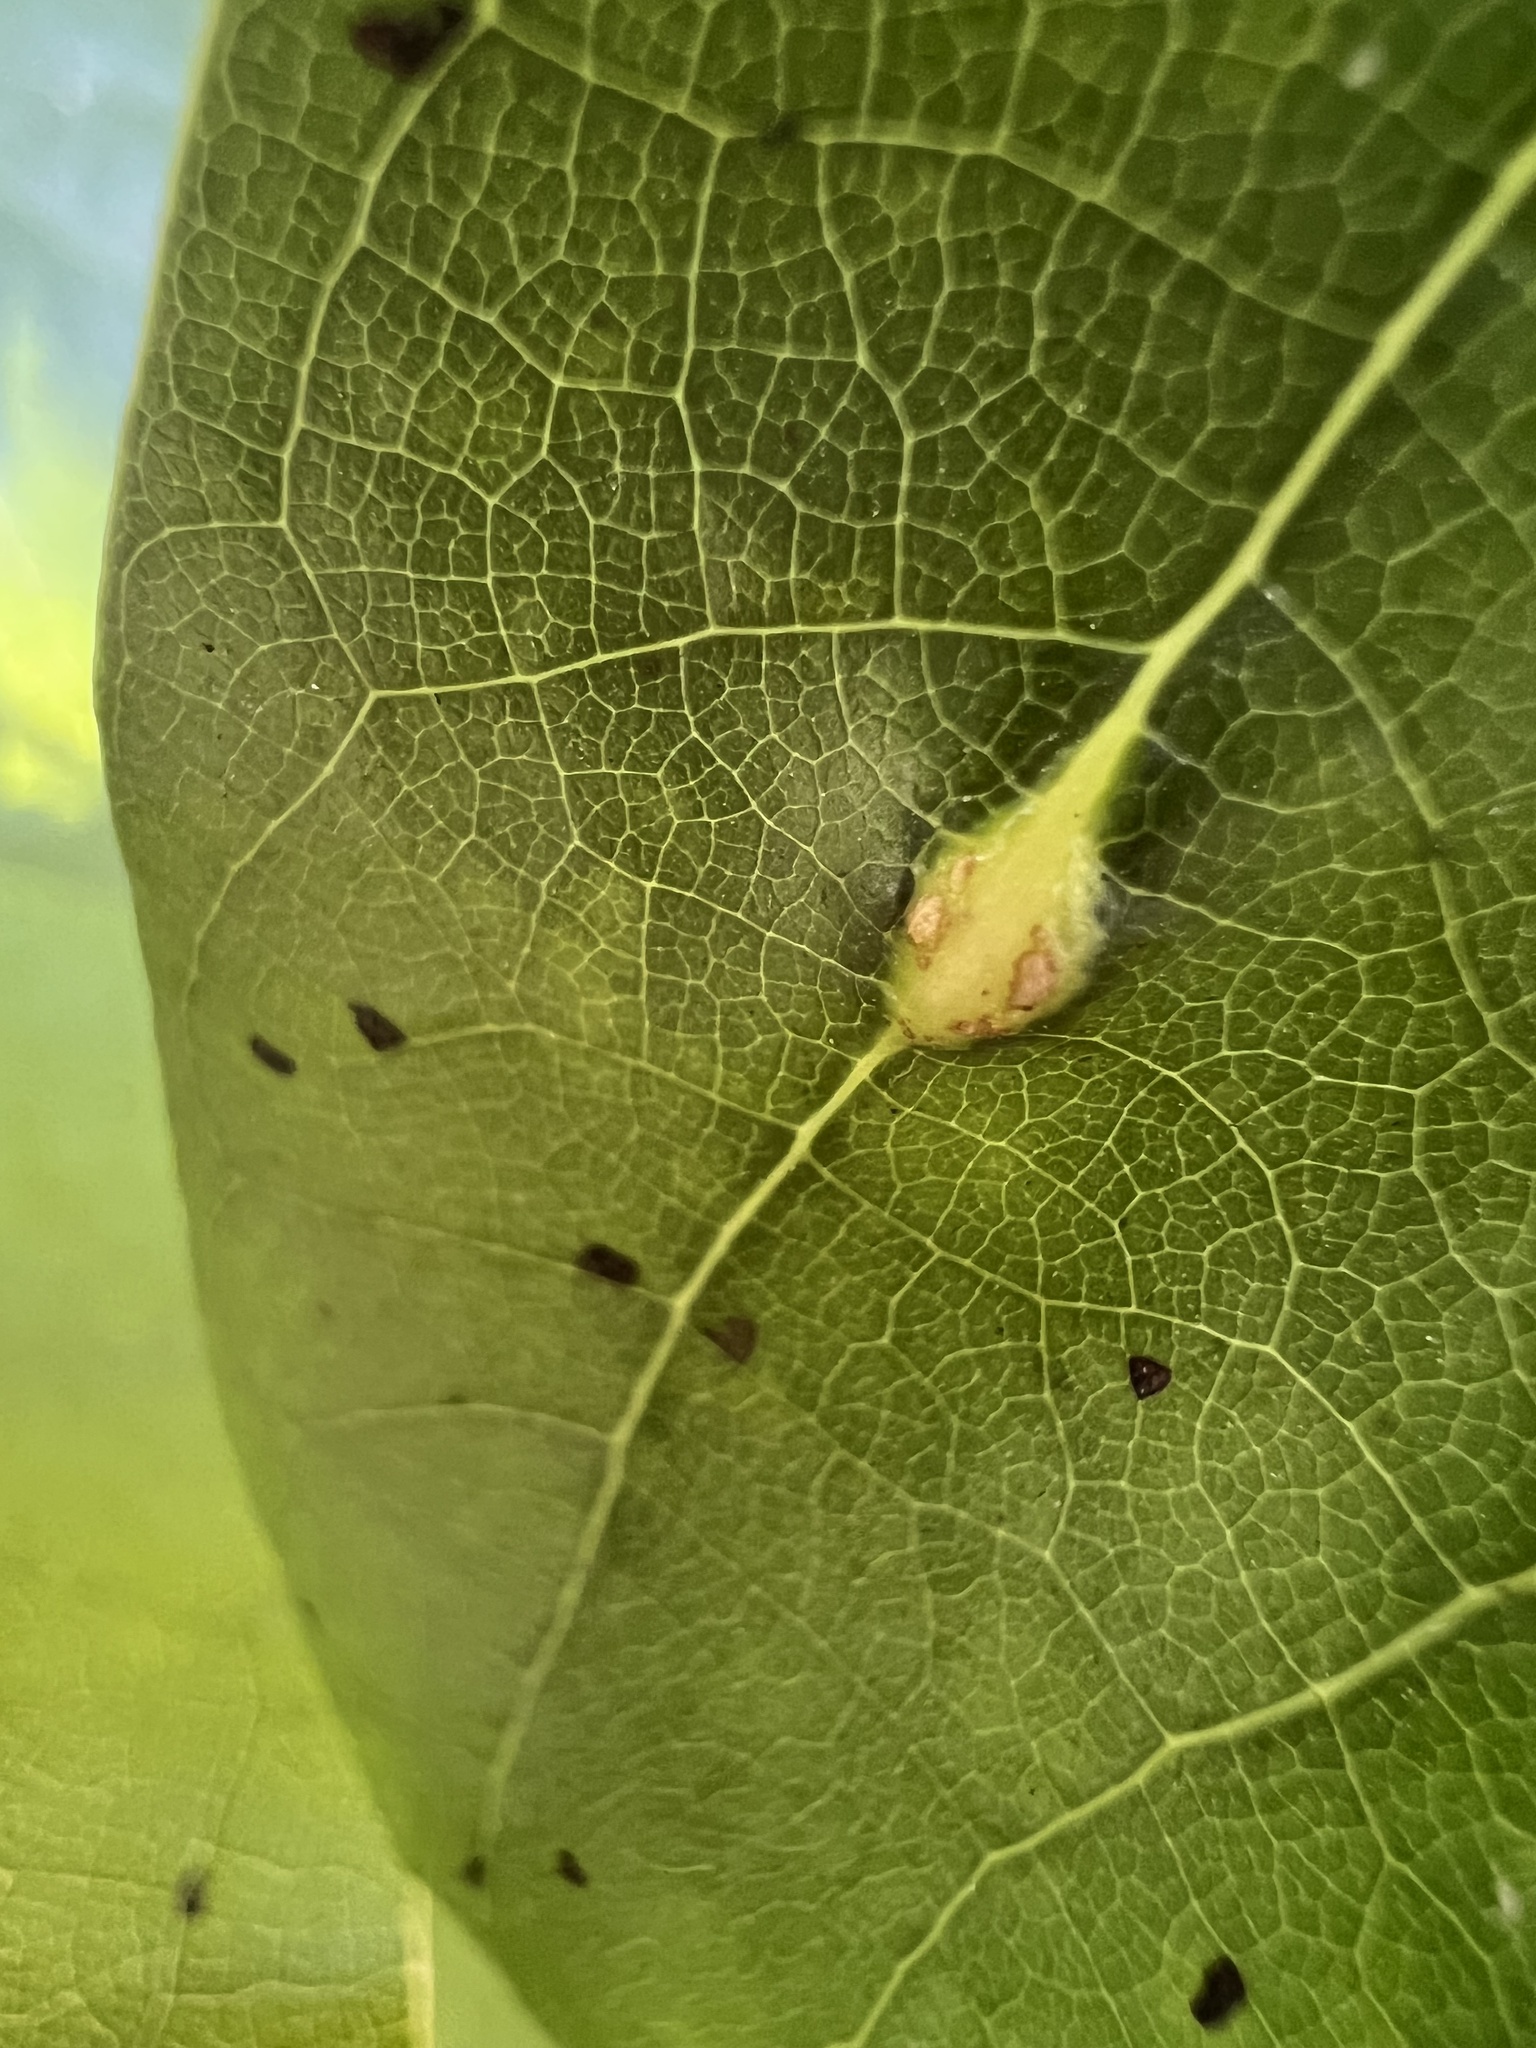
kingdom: Animalia
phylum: Arthropoda
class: Insecta
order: Diptera
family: Cecidomyiidae
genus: Resseliella
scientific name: Resseliella tulipiferae
